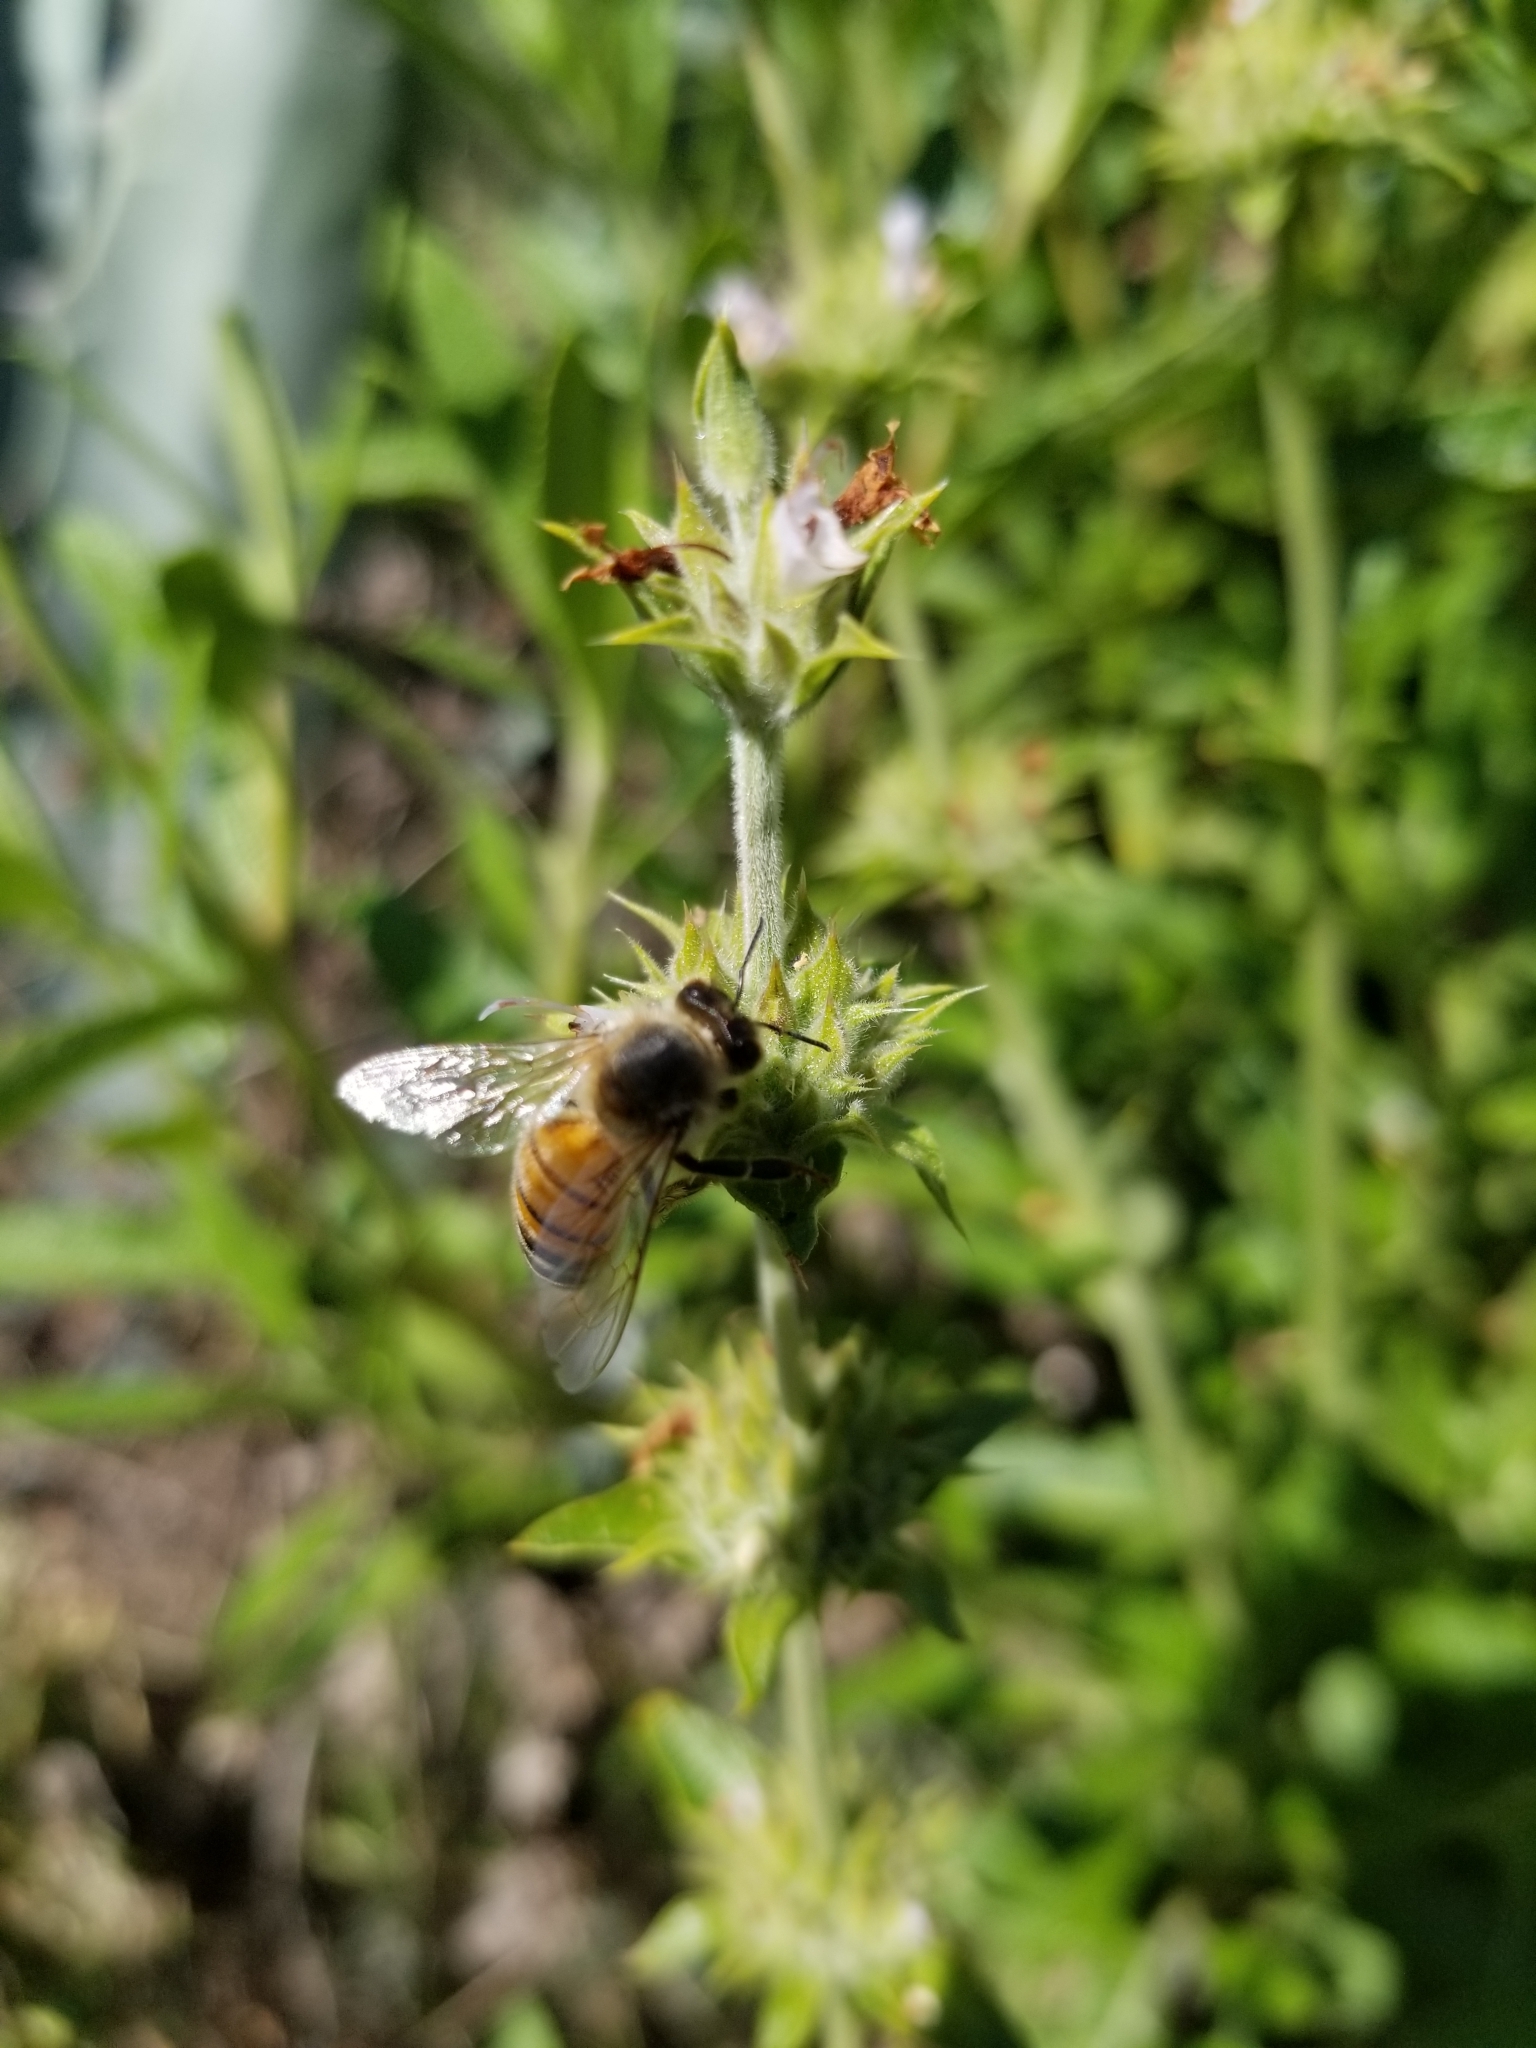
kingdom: Animalia
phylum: Arthropoda
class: Insecta
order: Hymenoptera
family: Apidae
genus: Apis
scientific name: Apis mellifera
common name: Honey bee
